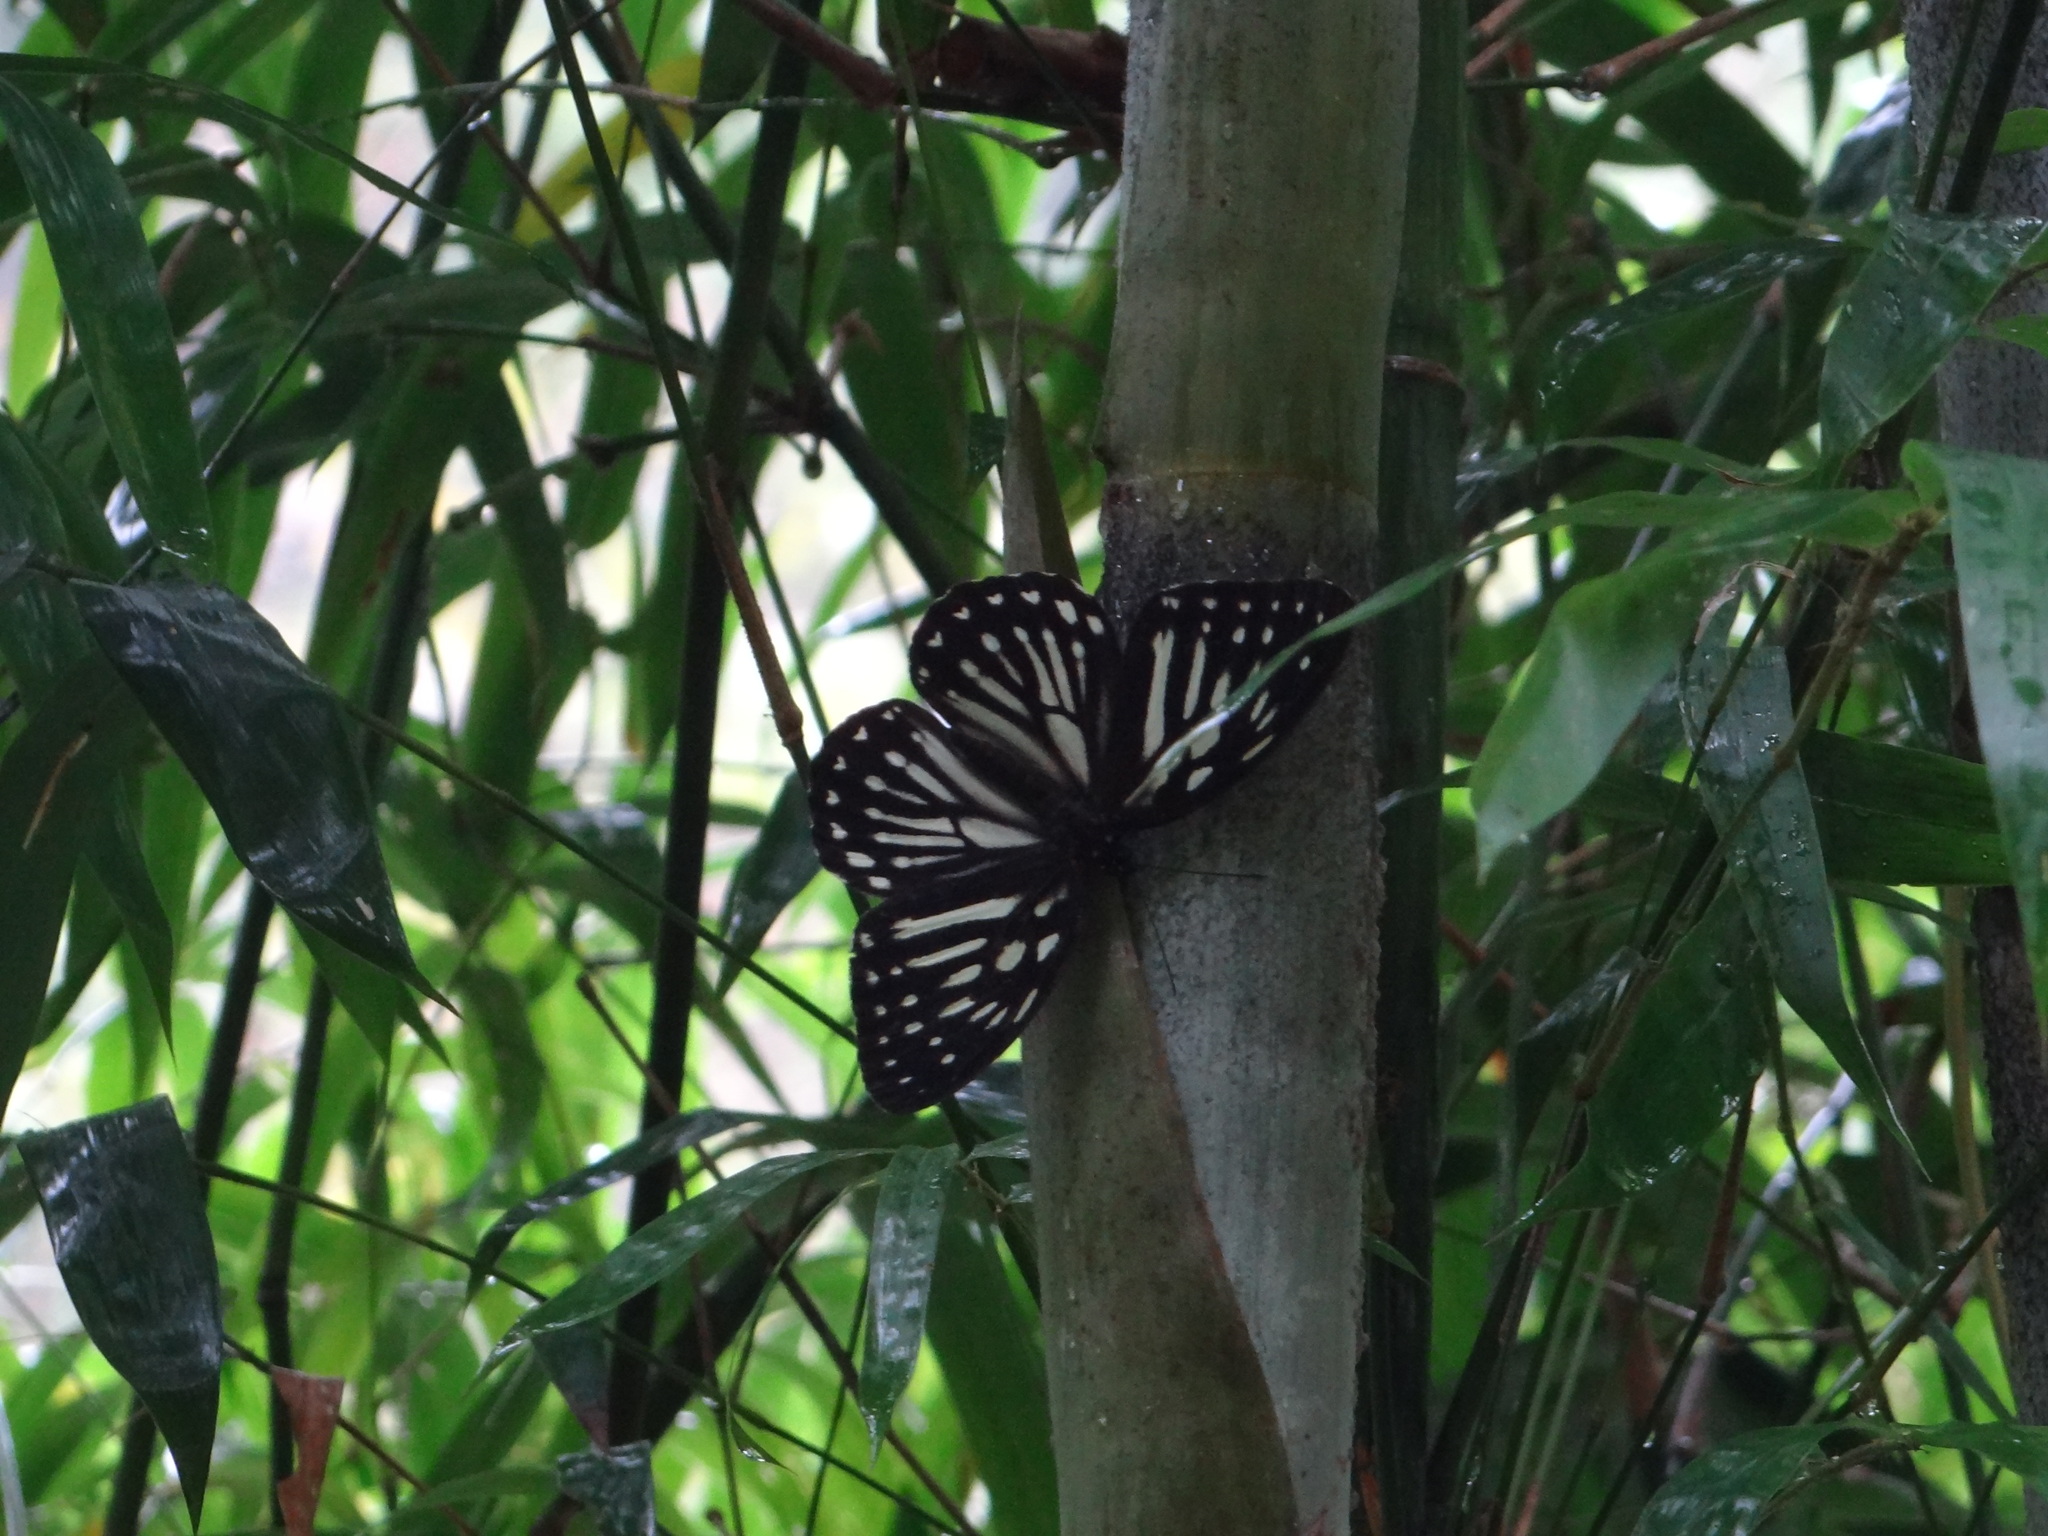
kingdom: Animalia
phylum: Arthropoda
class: Insecta
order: Lepidoptera
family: Nymphalidae
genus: Penthema
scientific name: Penthema formosanum
